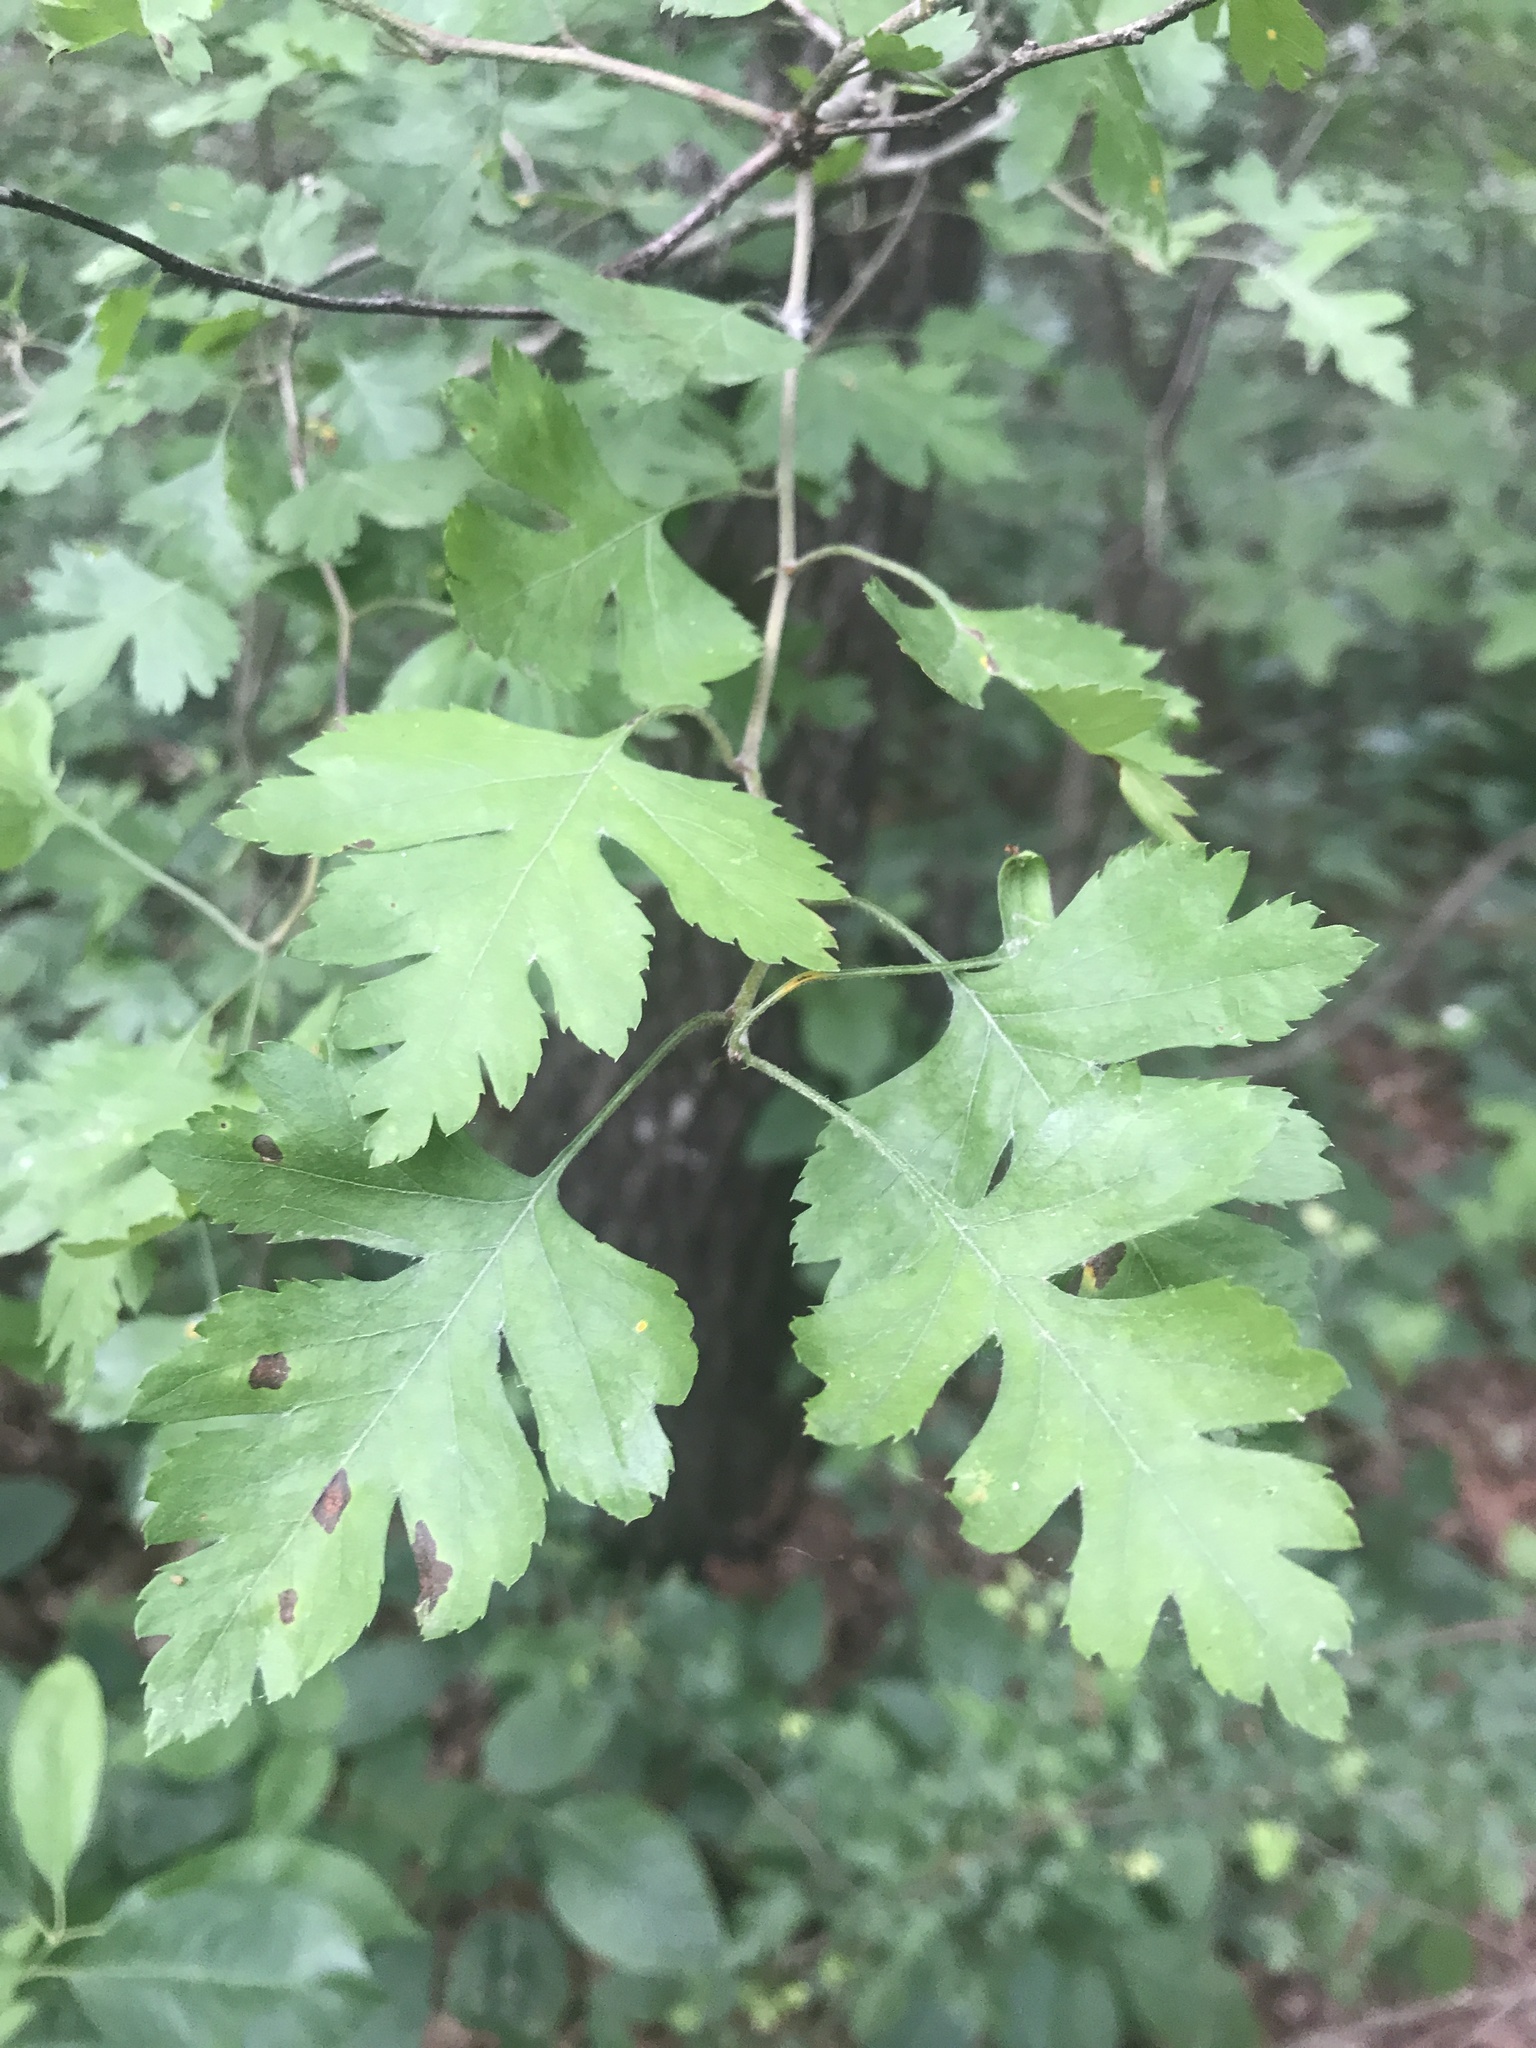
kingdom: Plantae
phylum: Tracheophyta
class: Magnoliopsida
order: Rosales
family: Rosaceae
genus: Crataegus
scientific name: Crataegus marshallii
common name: Parsley-hawthorn
